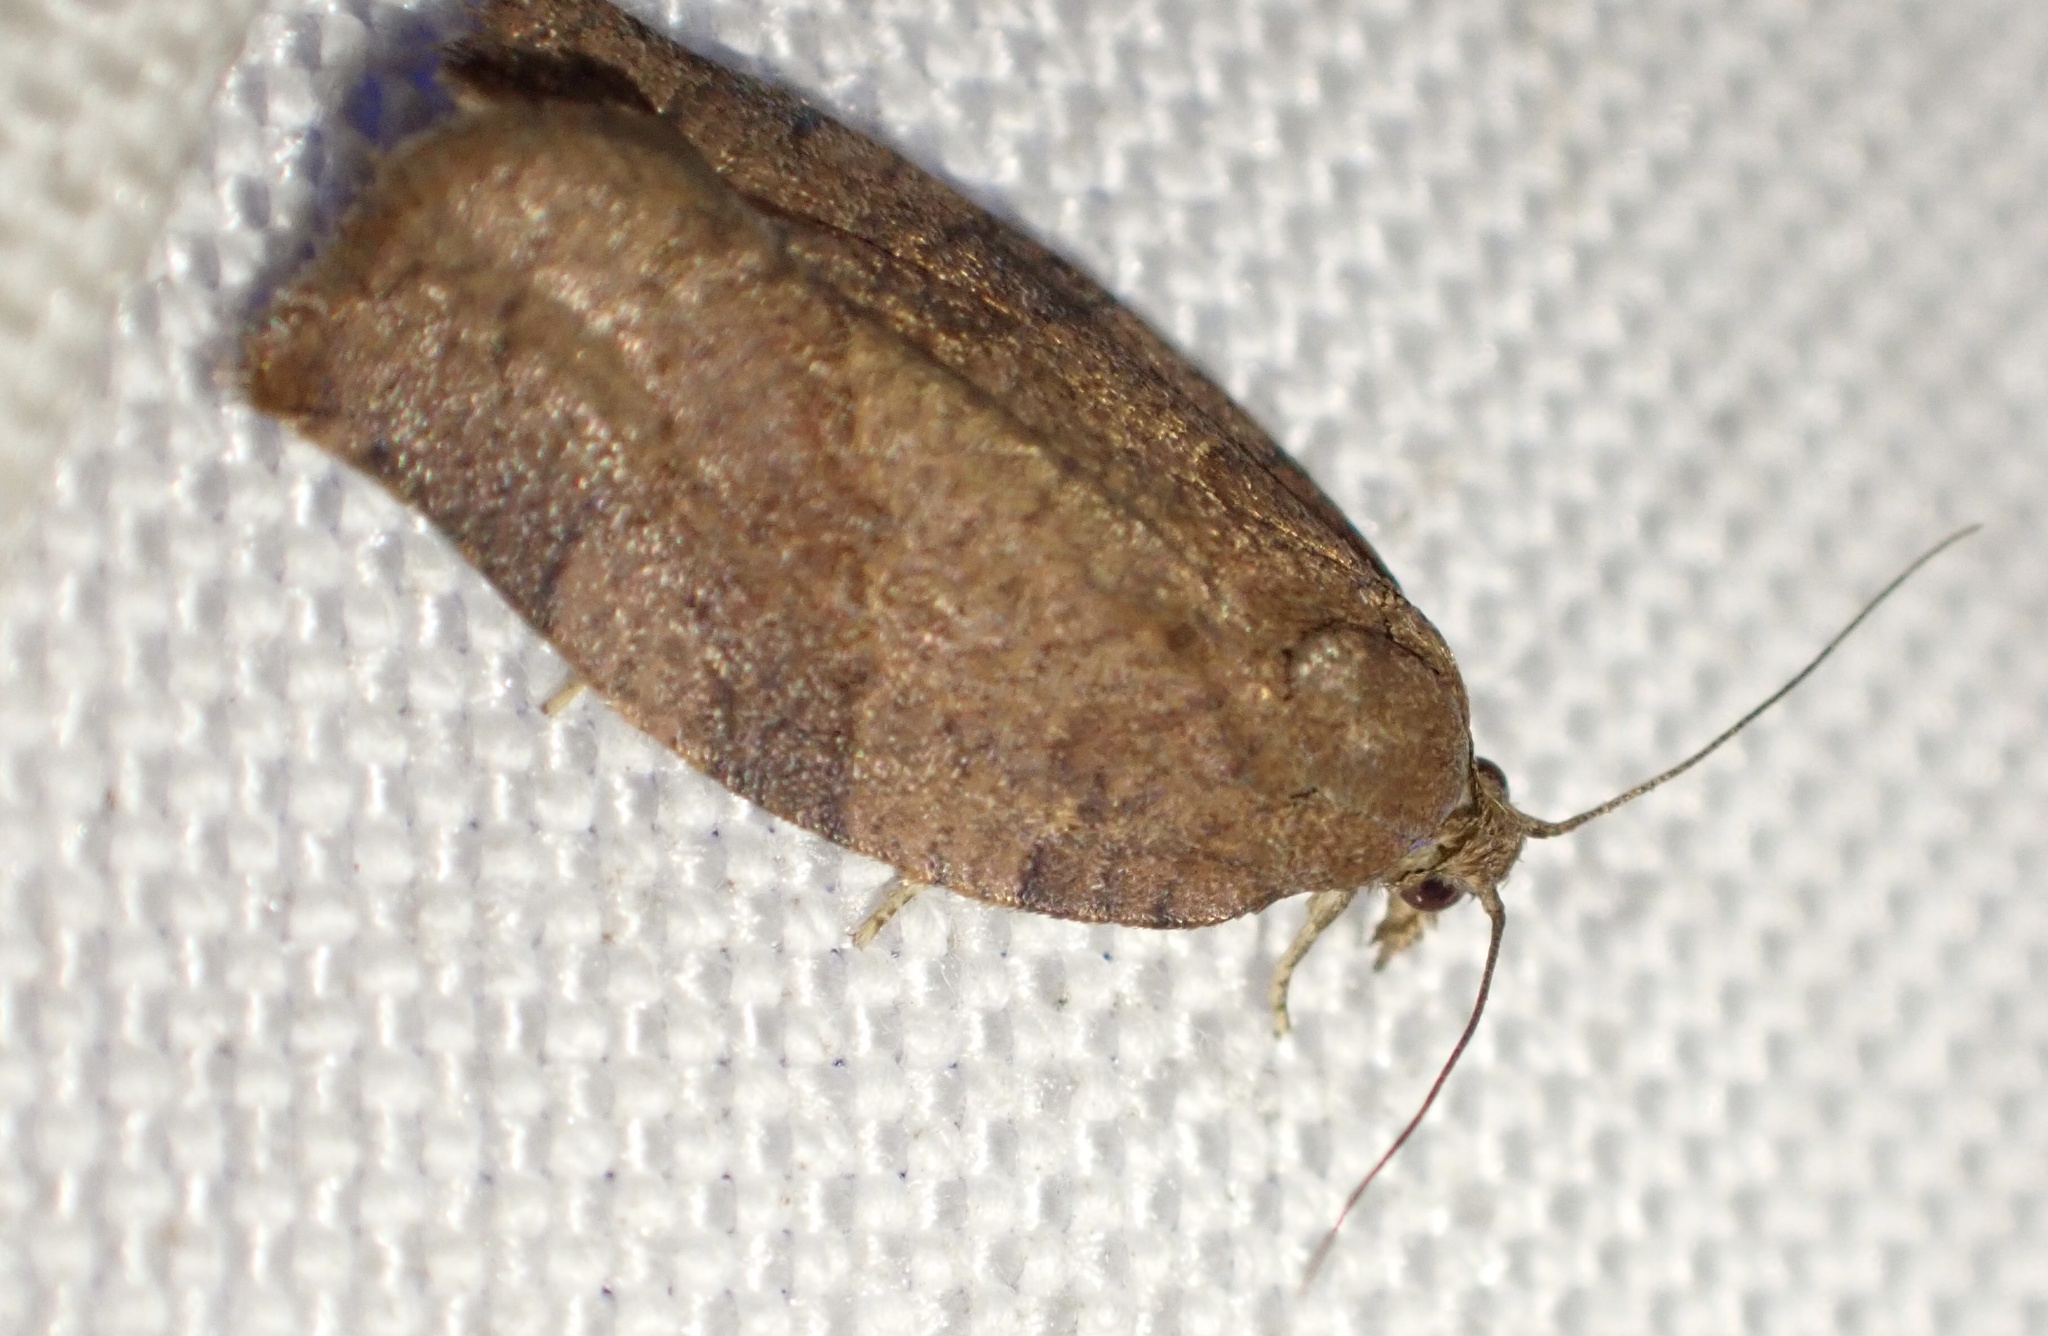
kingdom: Animalia
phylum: Arthropoda
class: Insecta
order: Lepidoptera
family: Tortricidae
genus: Pandemis
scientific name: Pandemis heparana
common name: Dark fruit-tree tortrix
